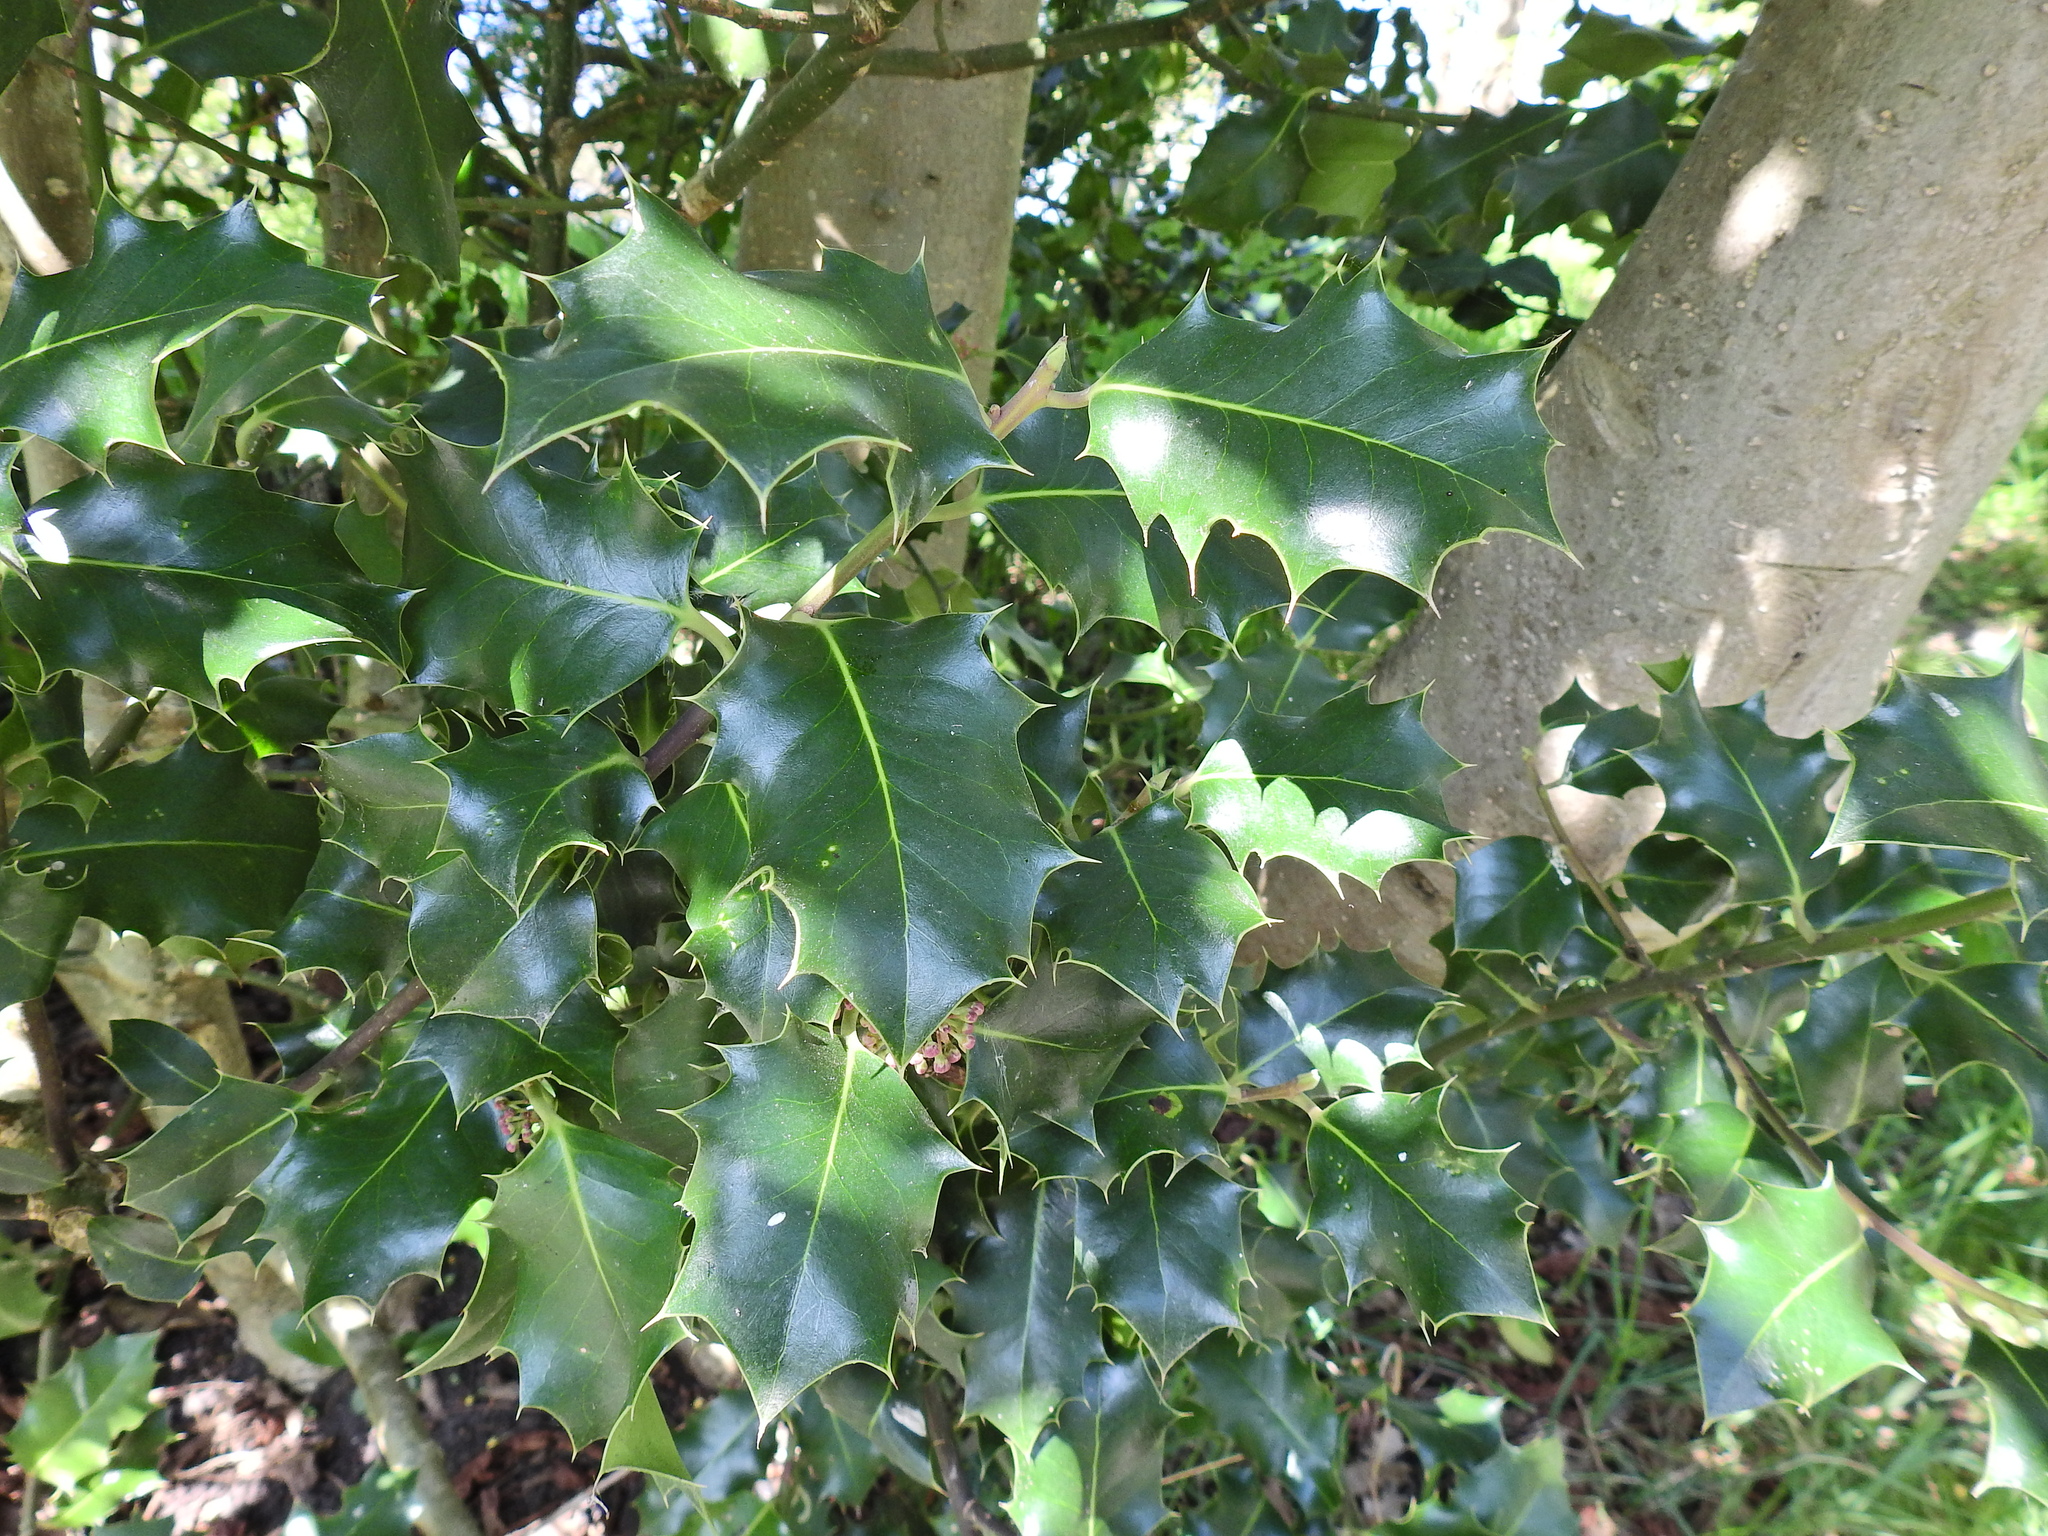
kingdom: Plantae
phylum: Tracheophyta
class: Magnoliopsida
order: Aquifoliales
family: Aquifoliaceae
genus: Ilex
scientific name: Ilex aquifolium
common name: English holly
